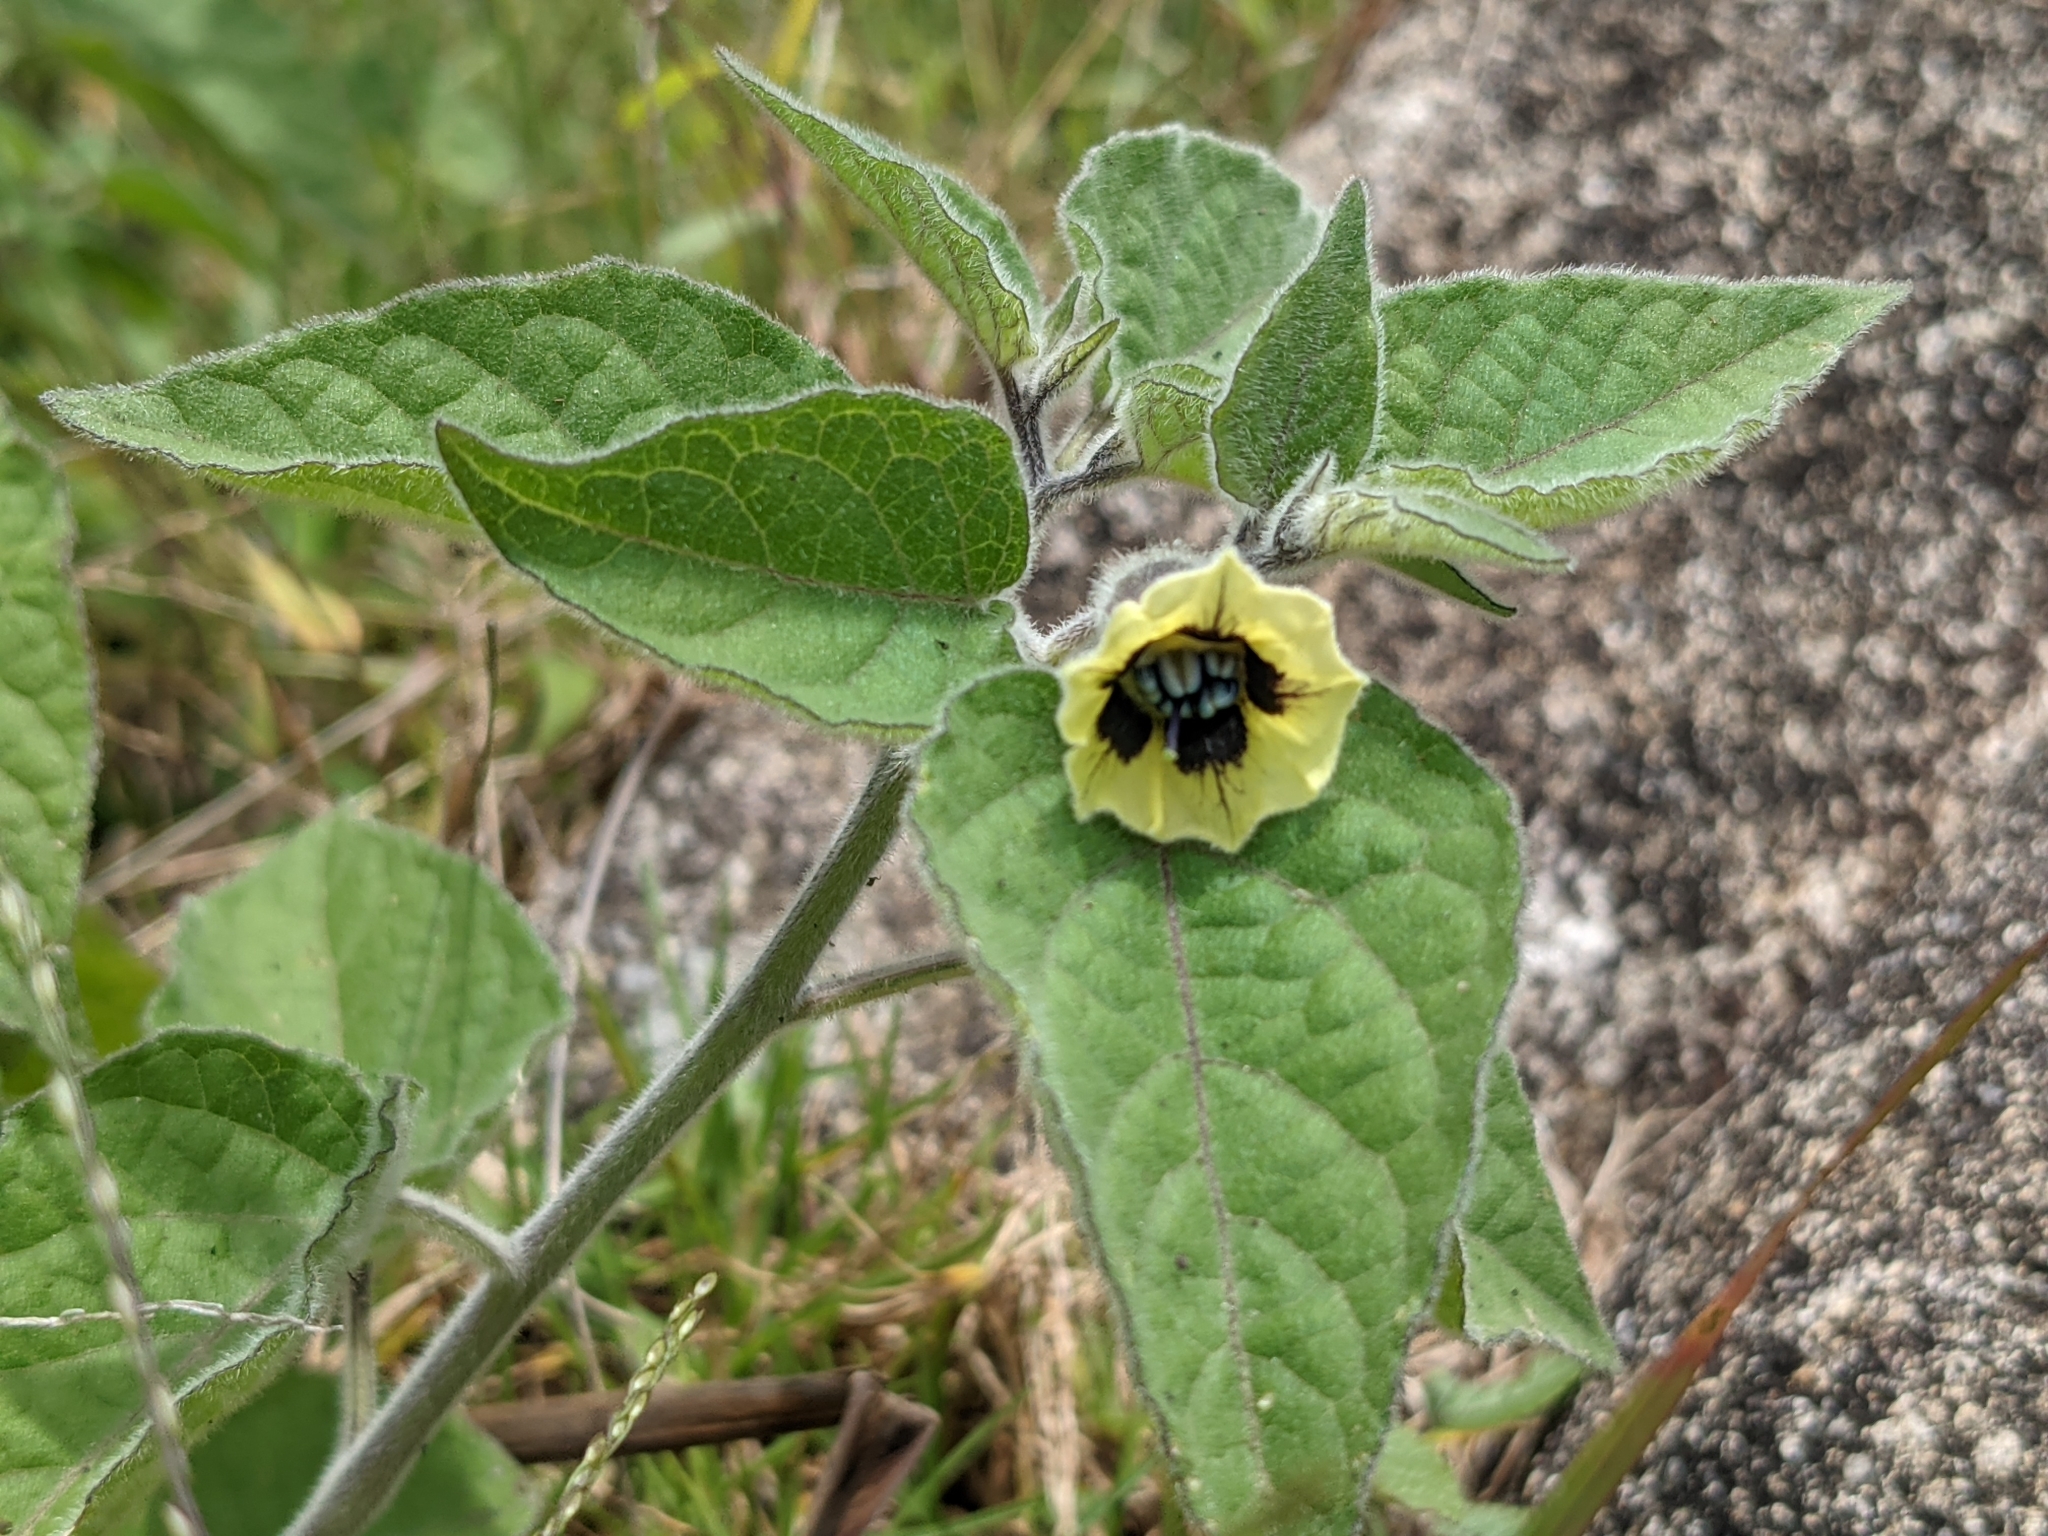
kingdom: Plantae
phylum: Tracheophyta
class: Magnoliopsida
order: Solanales
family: Solanaceae
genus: Physalis
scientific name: Physalis peruviana
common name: Cape-gooseberry
